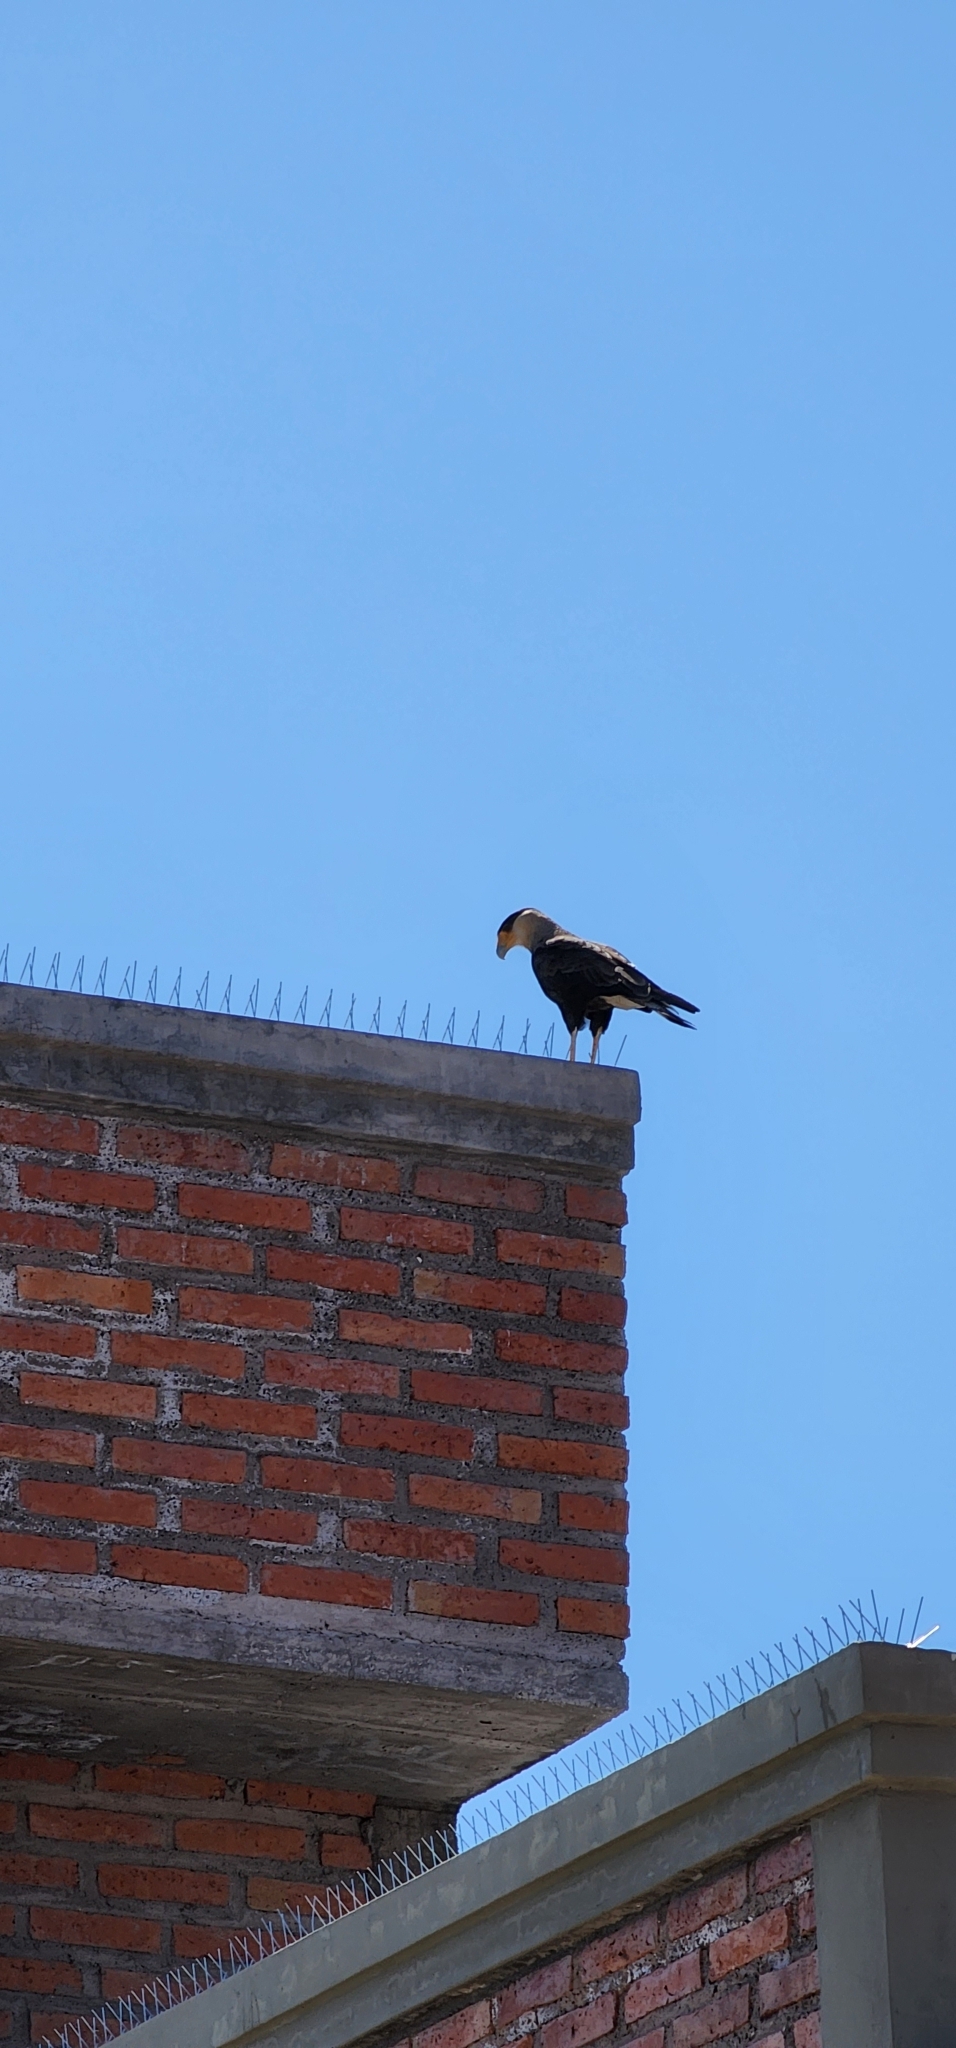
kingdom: Animalia
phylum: Chordata
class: Aves
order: Falconiformes
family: Falconidae
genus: Caracara
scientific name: Caracara plancus
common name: Southern caracara
